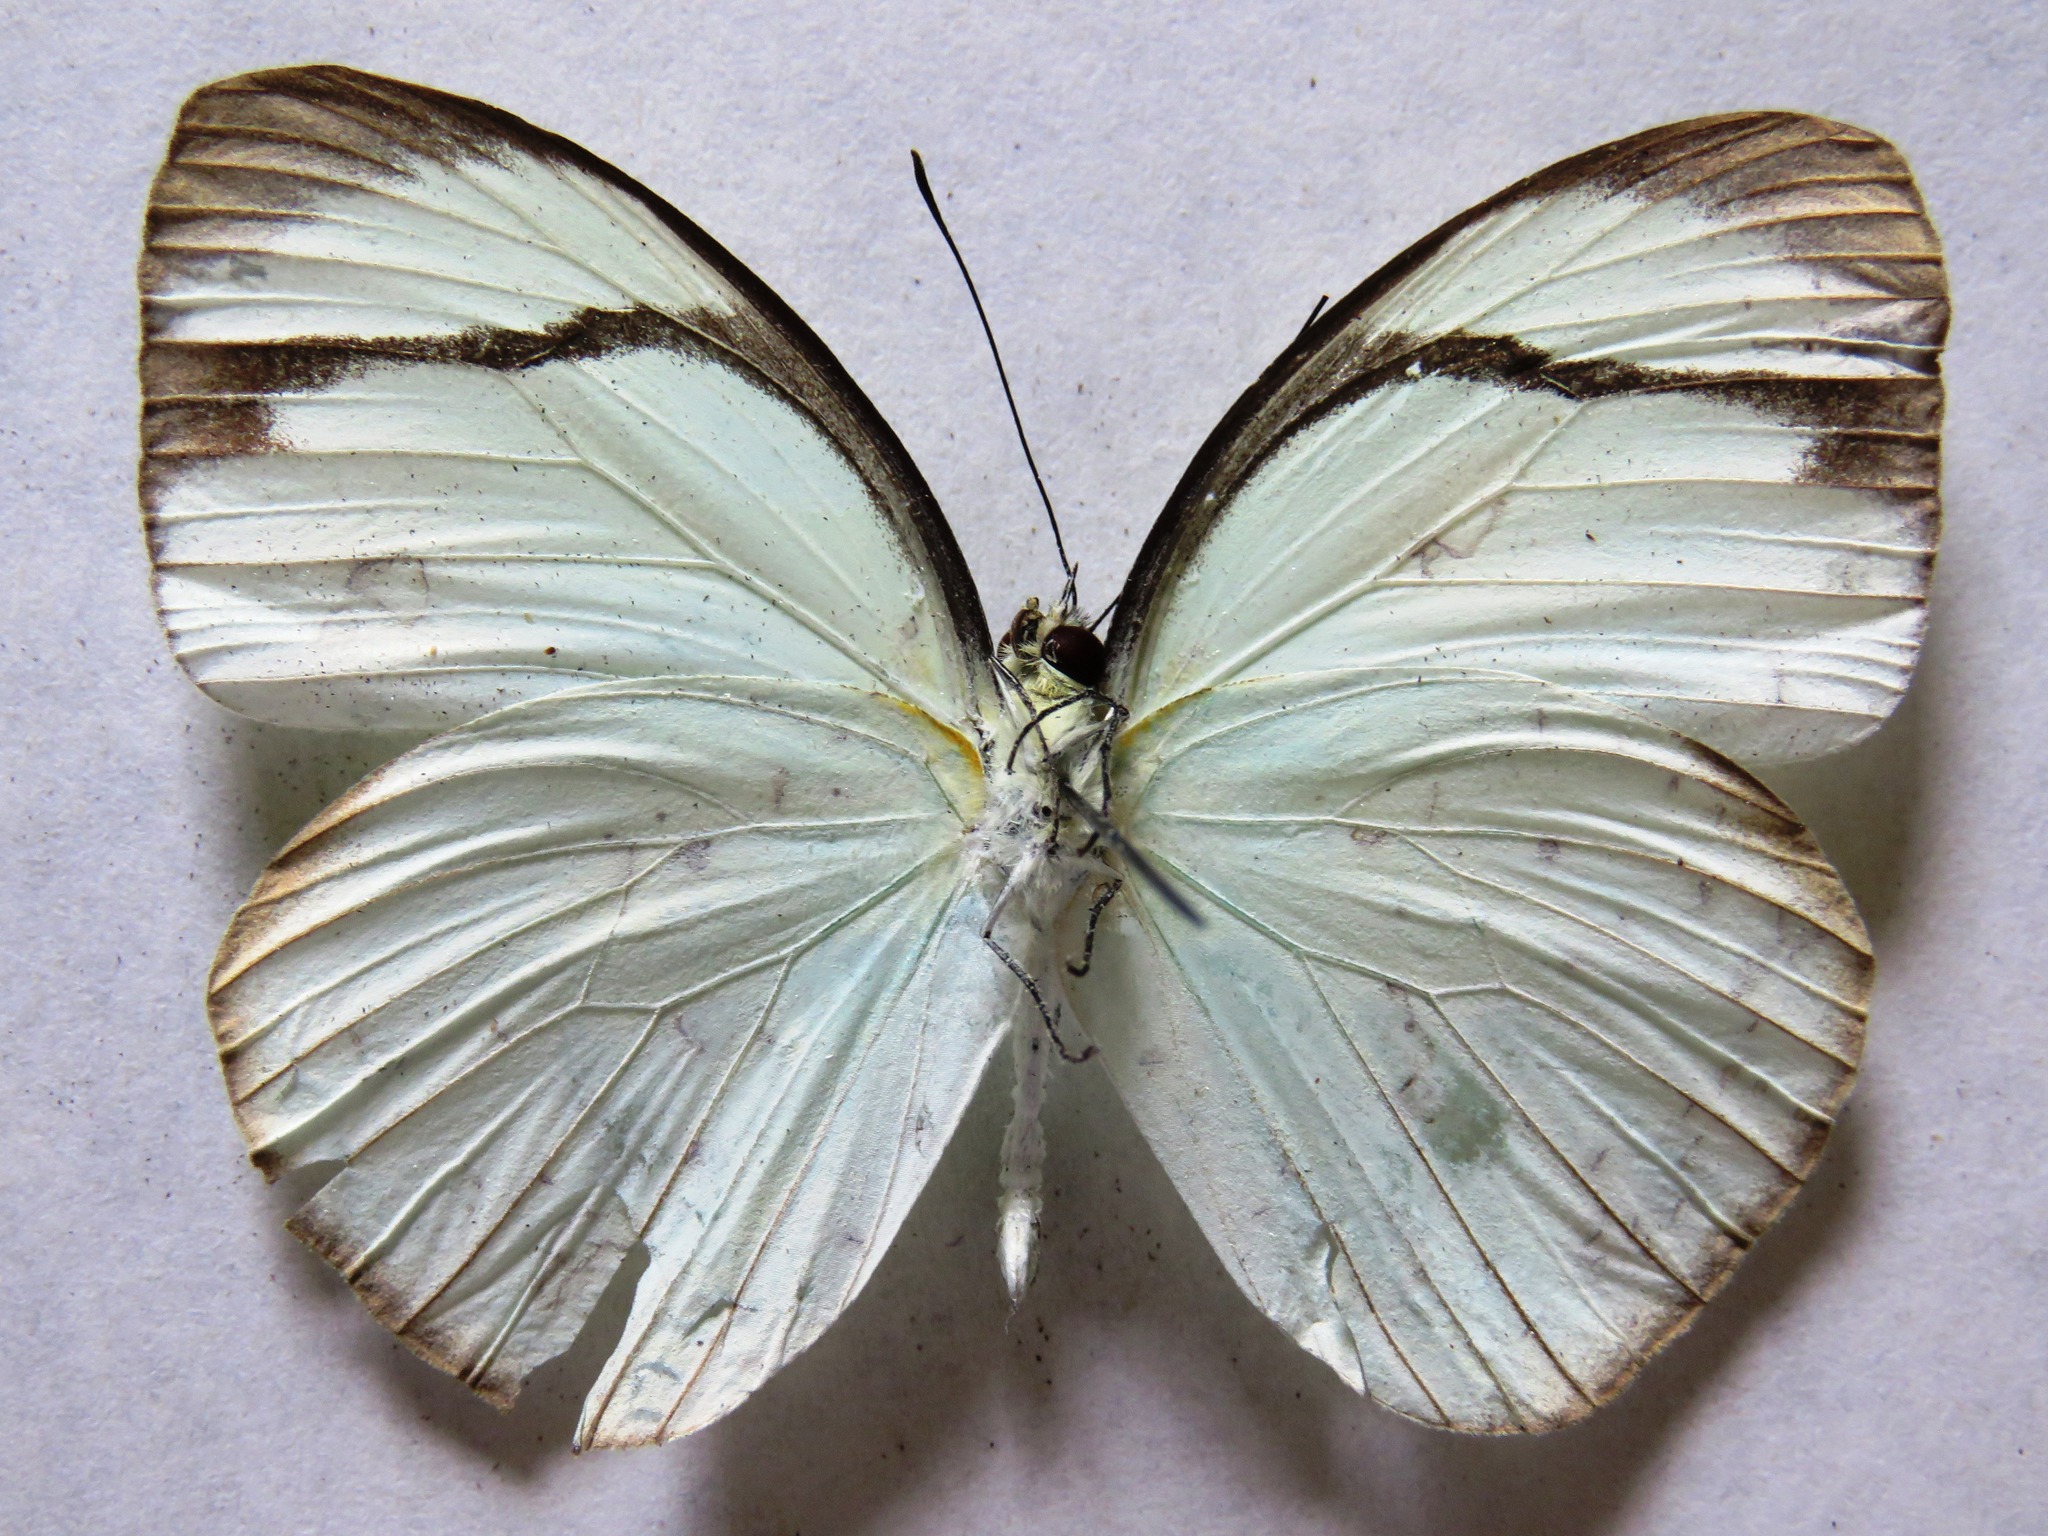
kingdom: Animalia
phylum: Arthropoda
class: Insecta
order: Lepidoptera
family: Pieridae
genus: Itaballia
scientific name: Itaballia demophile
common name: Cross-barred white
